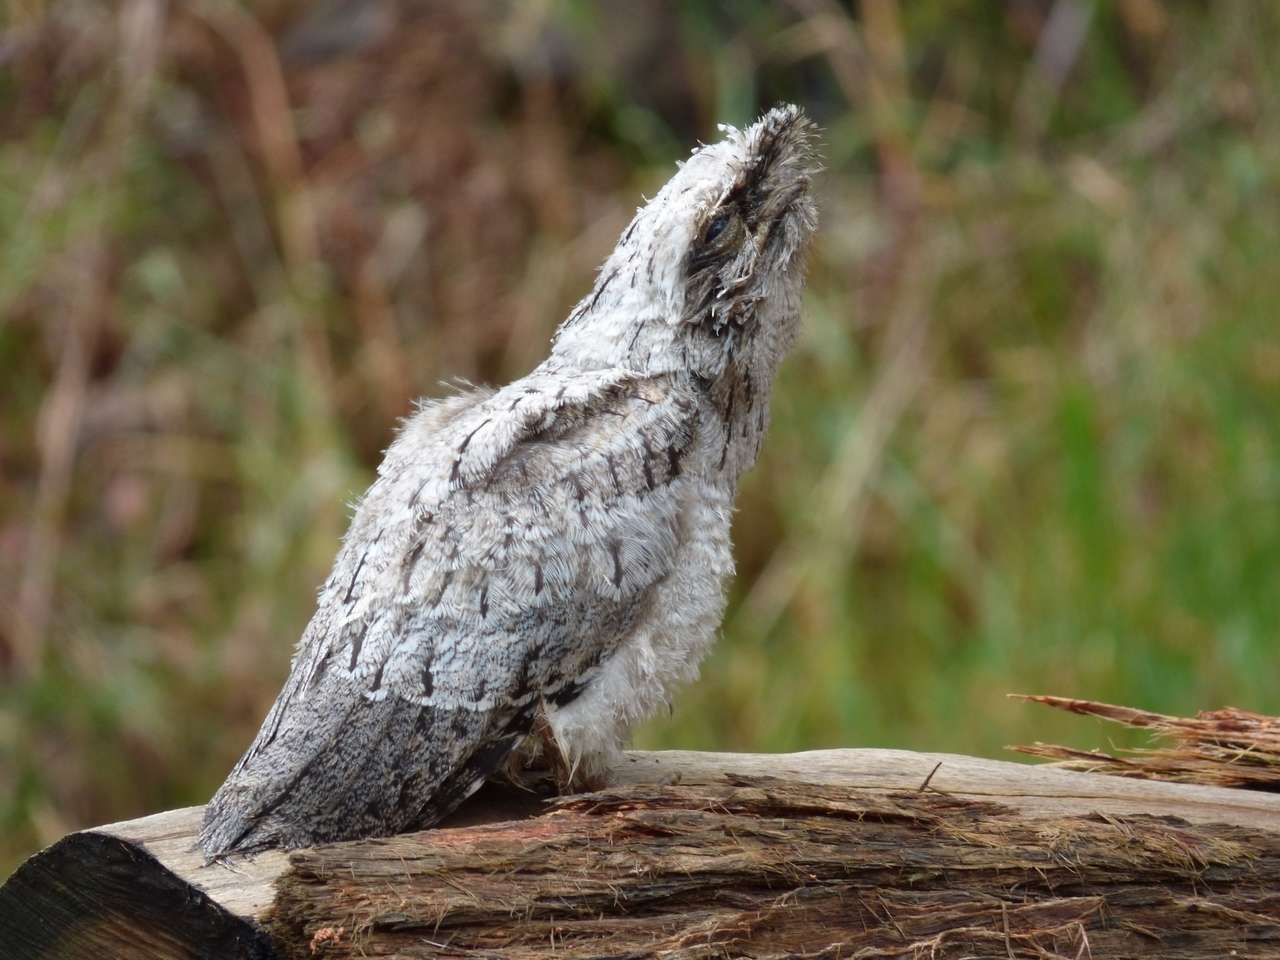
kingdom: Animalia
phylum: Chordata
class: Aves
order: Caprimulgiformes
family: Podargidae
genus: Podargus
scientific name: Podargus strigoides
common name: Tawny frogmouth
